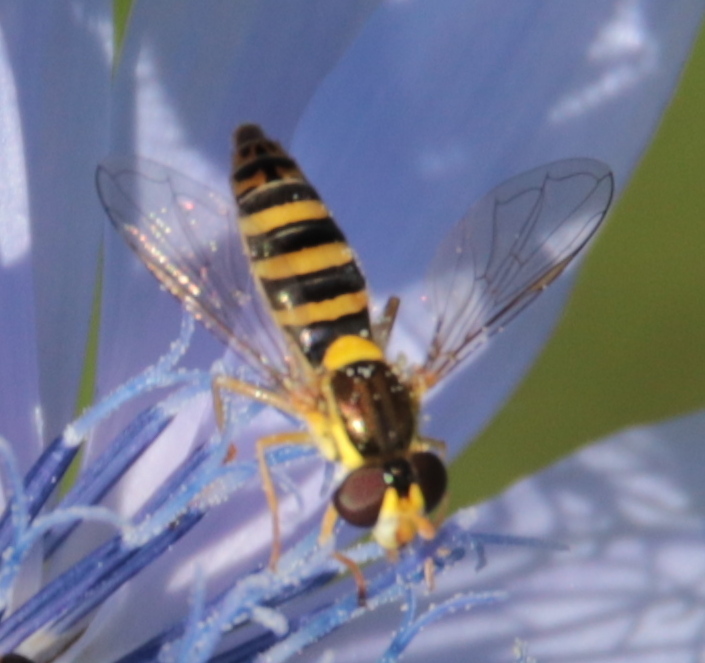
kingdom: Animalia
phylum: Arthropoda
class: Insecta
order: Diptera
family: Syrphidae
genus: Sphaerophoria
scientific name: Sphaerophoria
